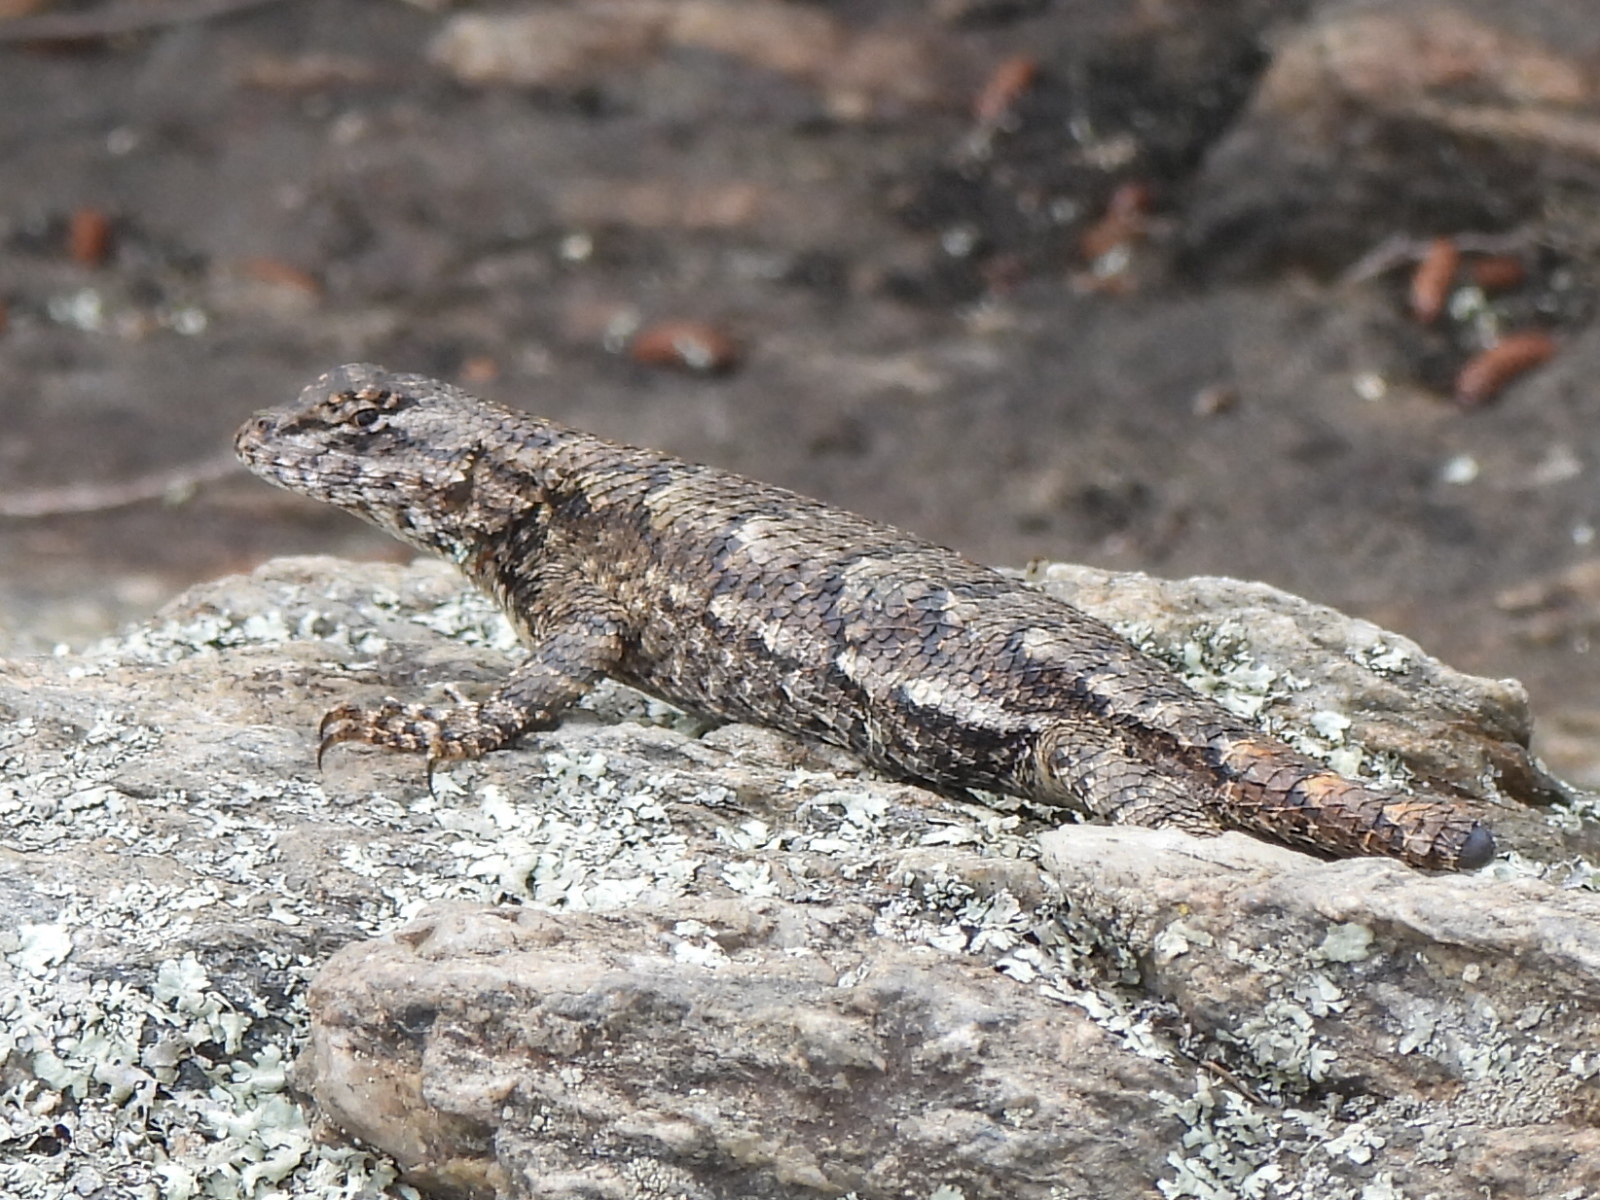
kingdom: Animalia
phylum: Chordata
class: Squamata
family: Phrynosomatidae
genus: Sceloporus
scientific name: Sceloporus undulatus
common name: Eastern fence lizard
